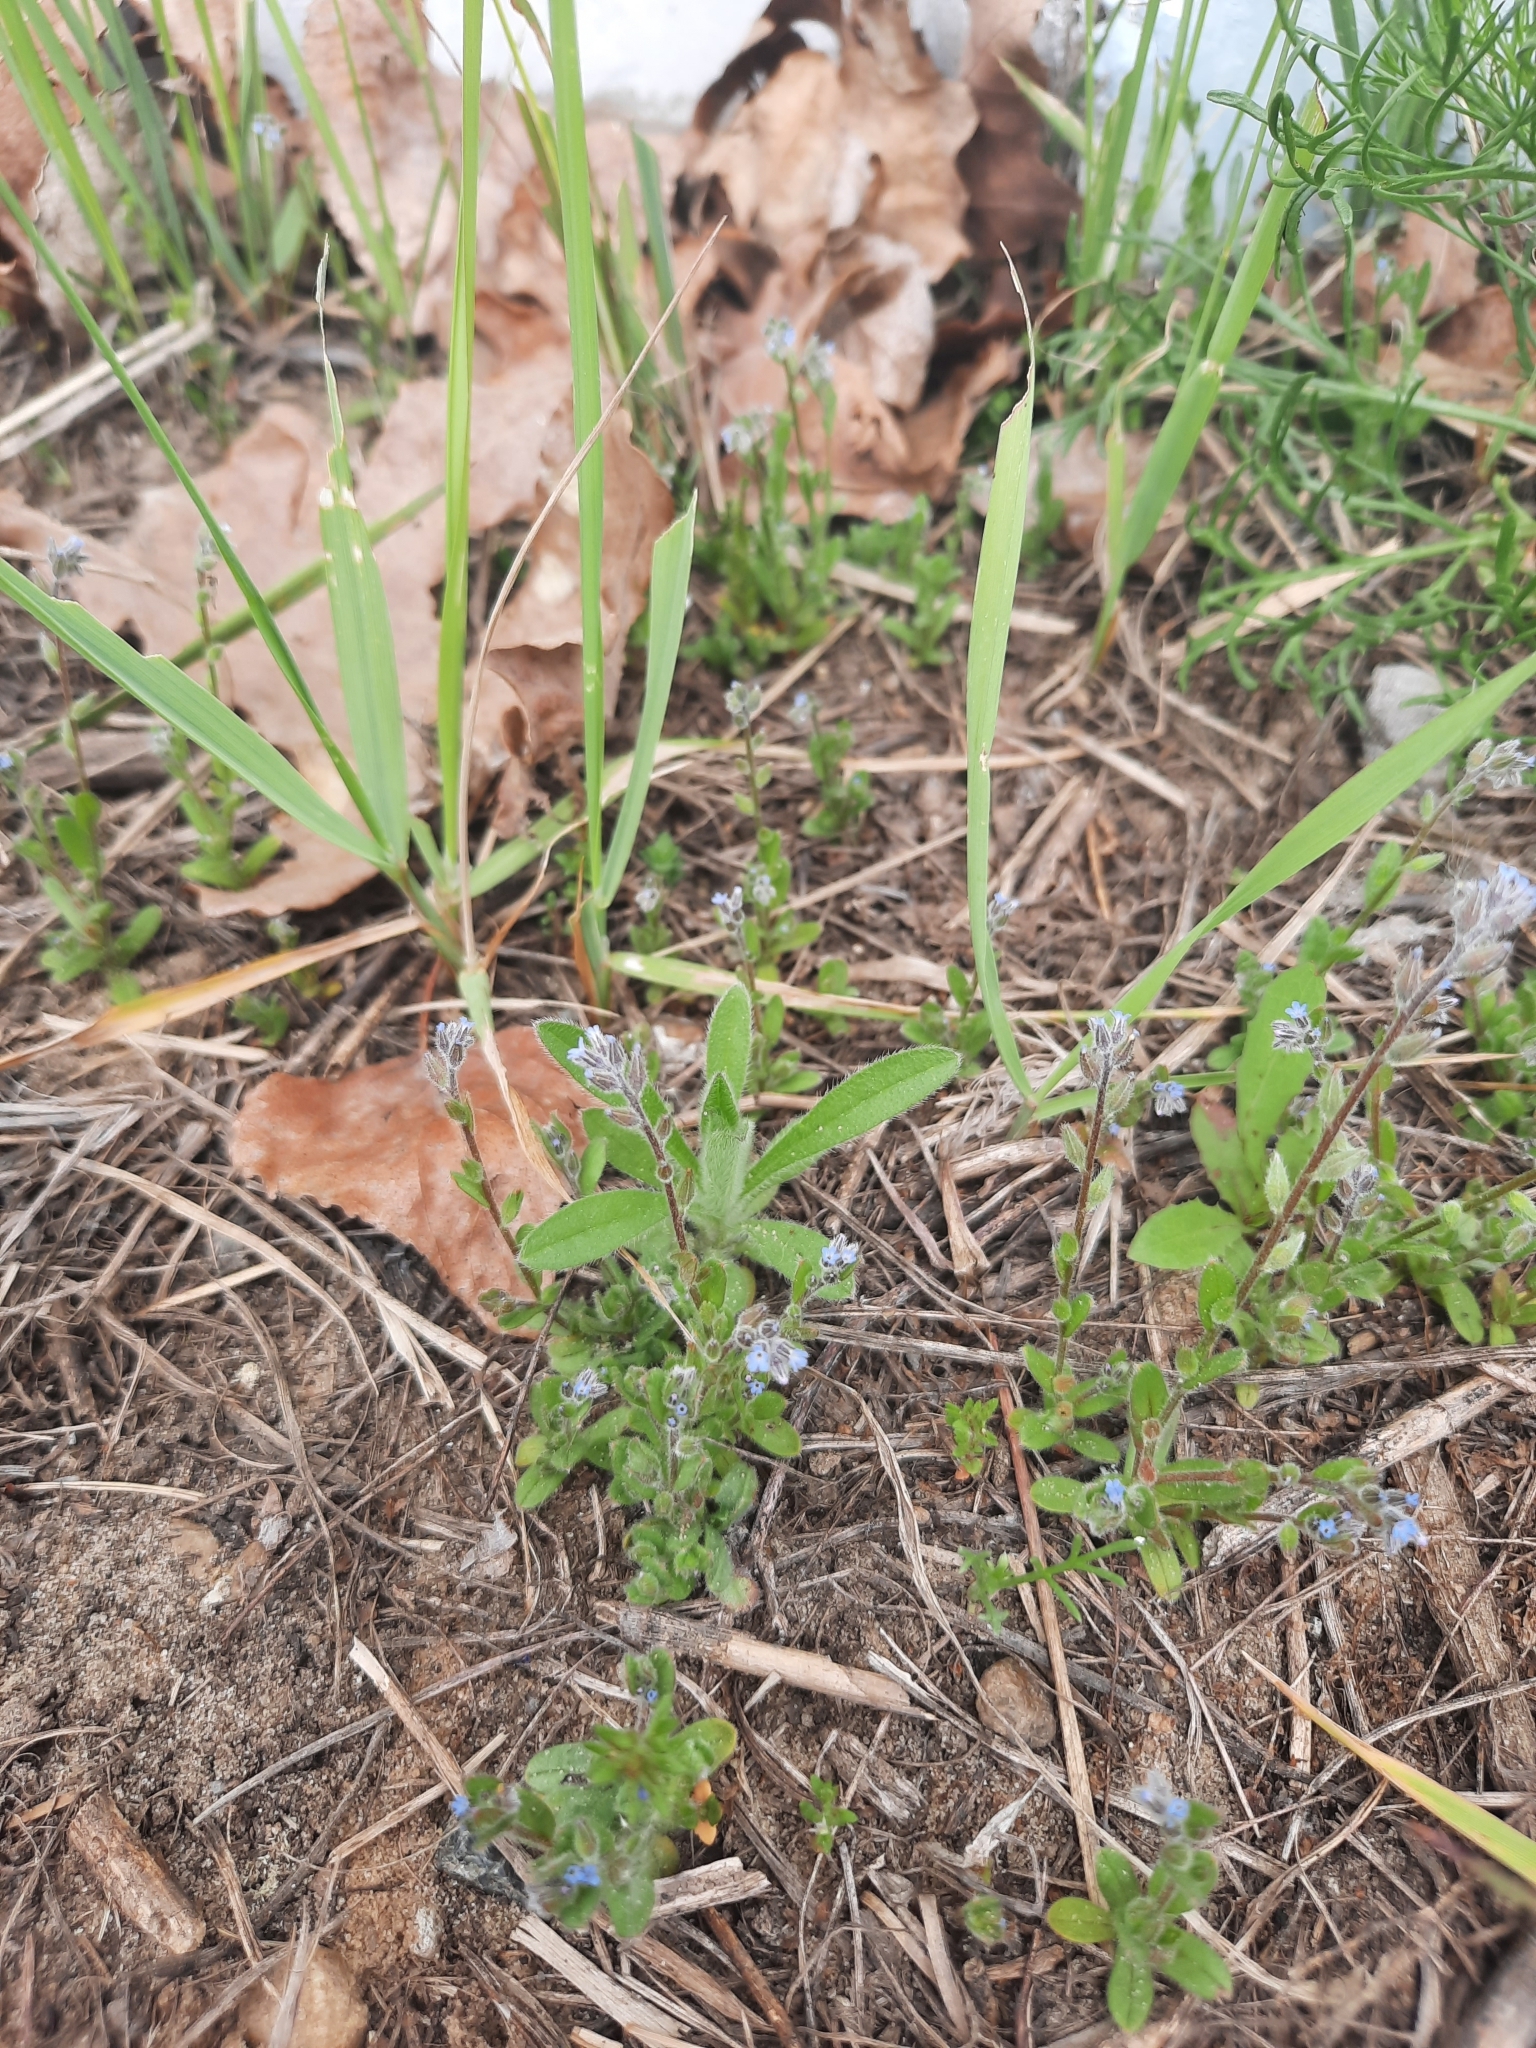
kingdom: Plantae
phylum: Tracheophyta
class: Magnoliopsida
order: Boraginales
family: Boraginaceae
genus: Myosotis
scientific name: Myosotis stricta
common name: Strict forget-me-not
